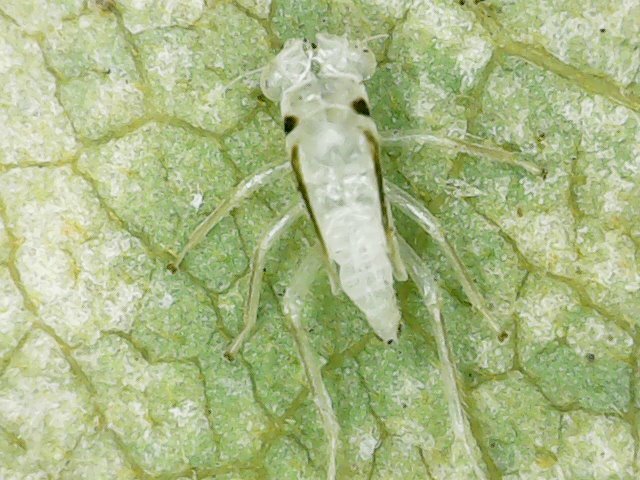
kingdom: Animalia
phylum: Arthropoda
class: Insecta
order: Hemiptera
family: Cicadellidae
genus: Singapora
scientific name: Singapora nigropunctata
